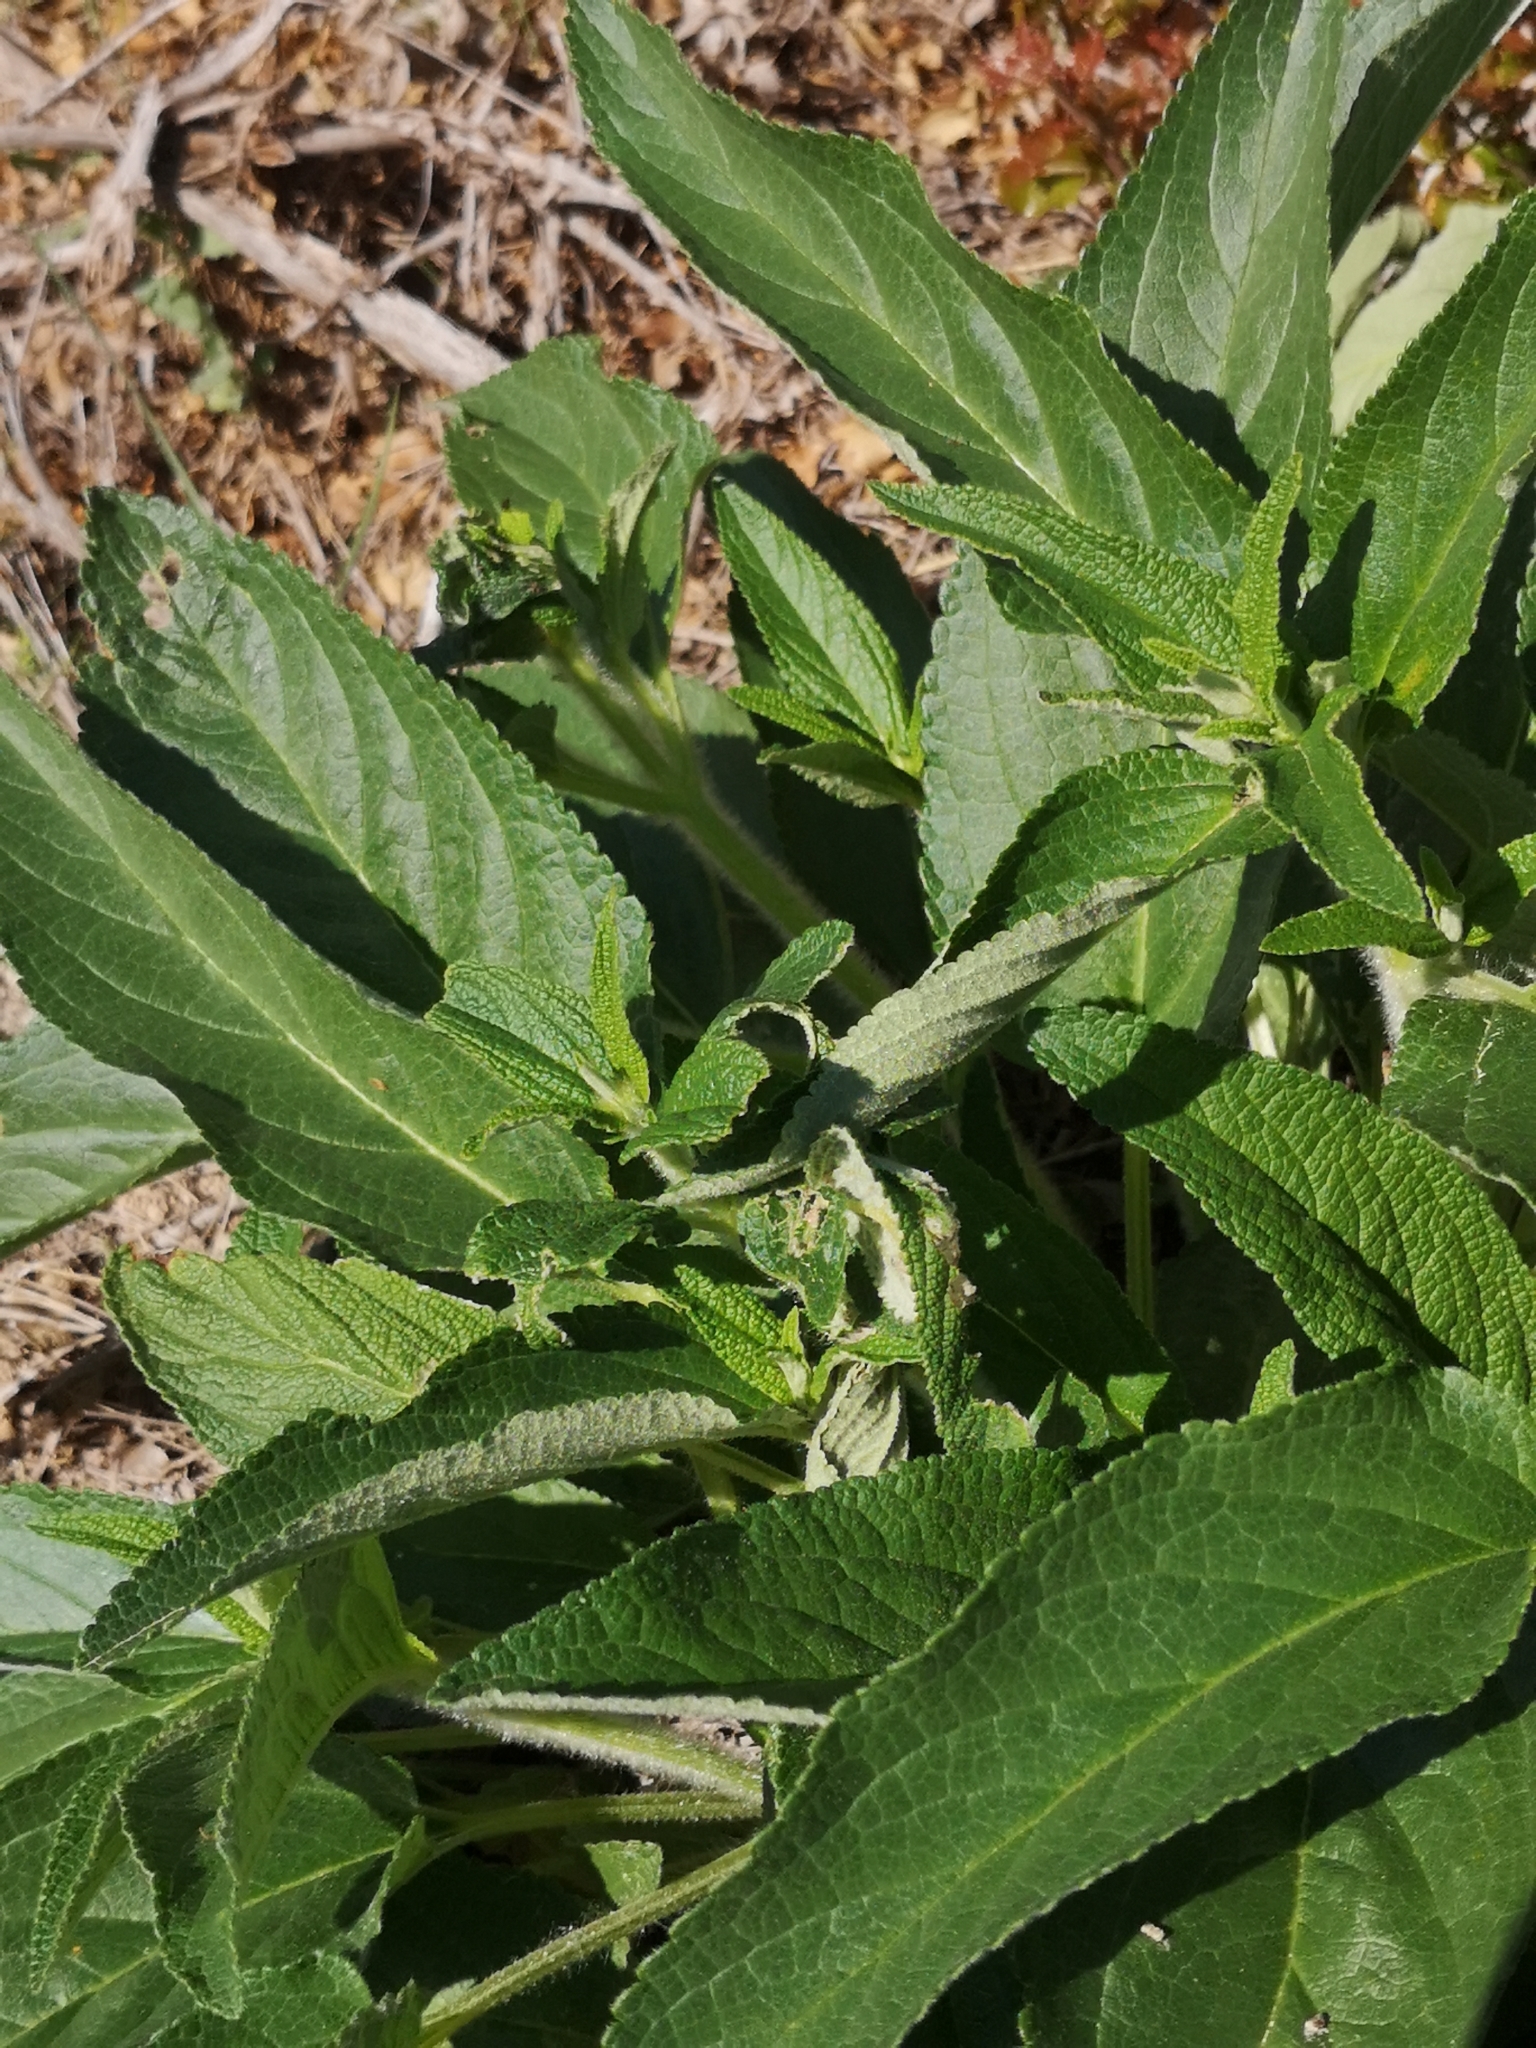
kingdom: Plantae
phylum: Tracheophyta
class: Magnoliopsida
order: Lamiales
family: Lamiaceae
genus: Phlomis
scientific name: Phlomis herba-venti
